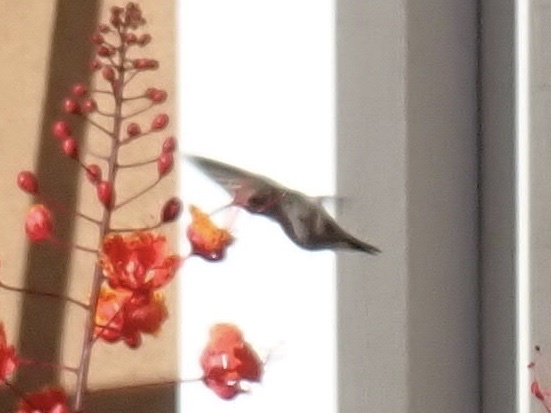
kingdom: Animalia
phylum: Chordata
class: Aves
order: Apodiformes
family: Trochilidae
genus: Calypte
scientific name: Calypte anna
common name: Anna's hummingbird
